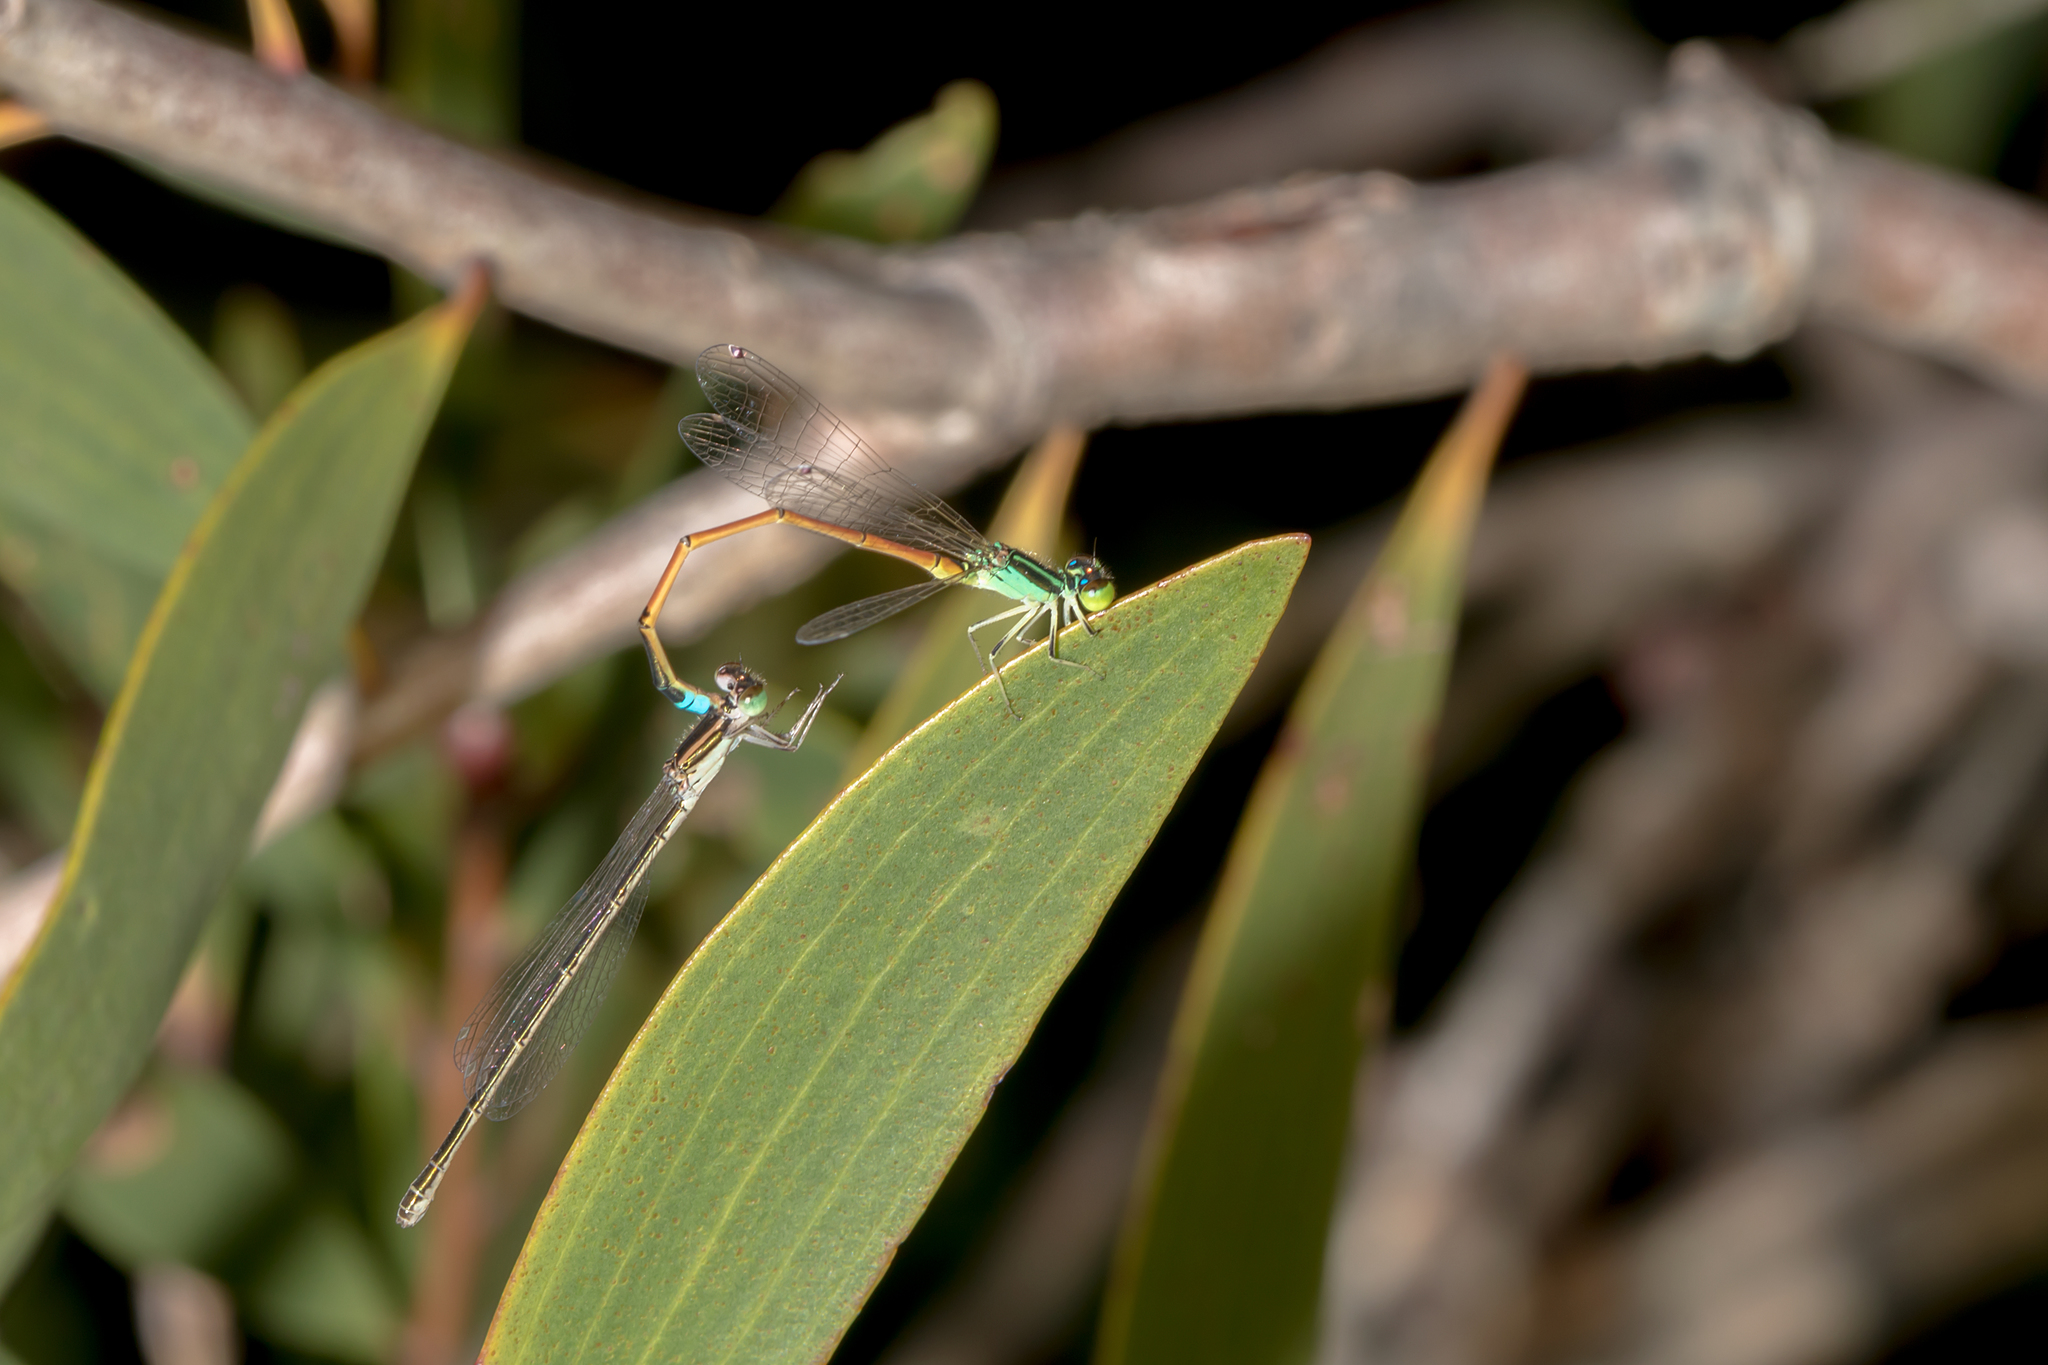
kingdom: Animalia
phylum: Arthropoda
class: Insecta
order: Odonata
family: Coenagrionidae
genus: Ischnura
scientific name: Ischnura aurora
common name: Gossamer damselfly
